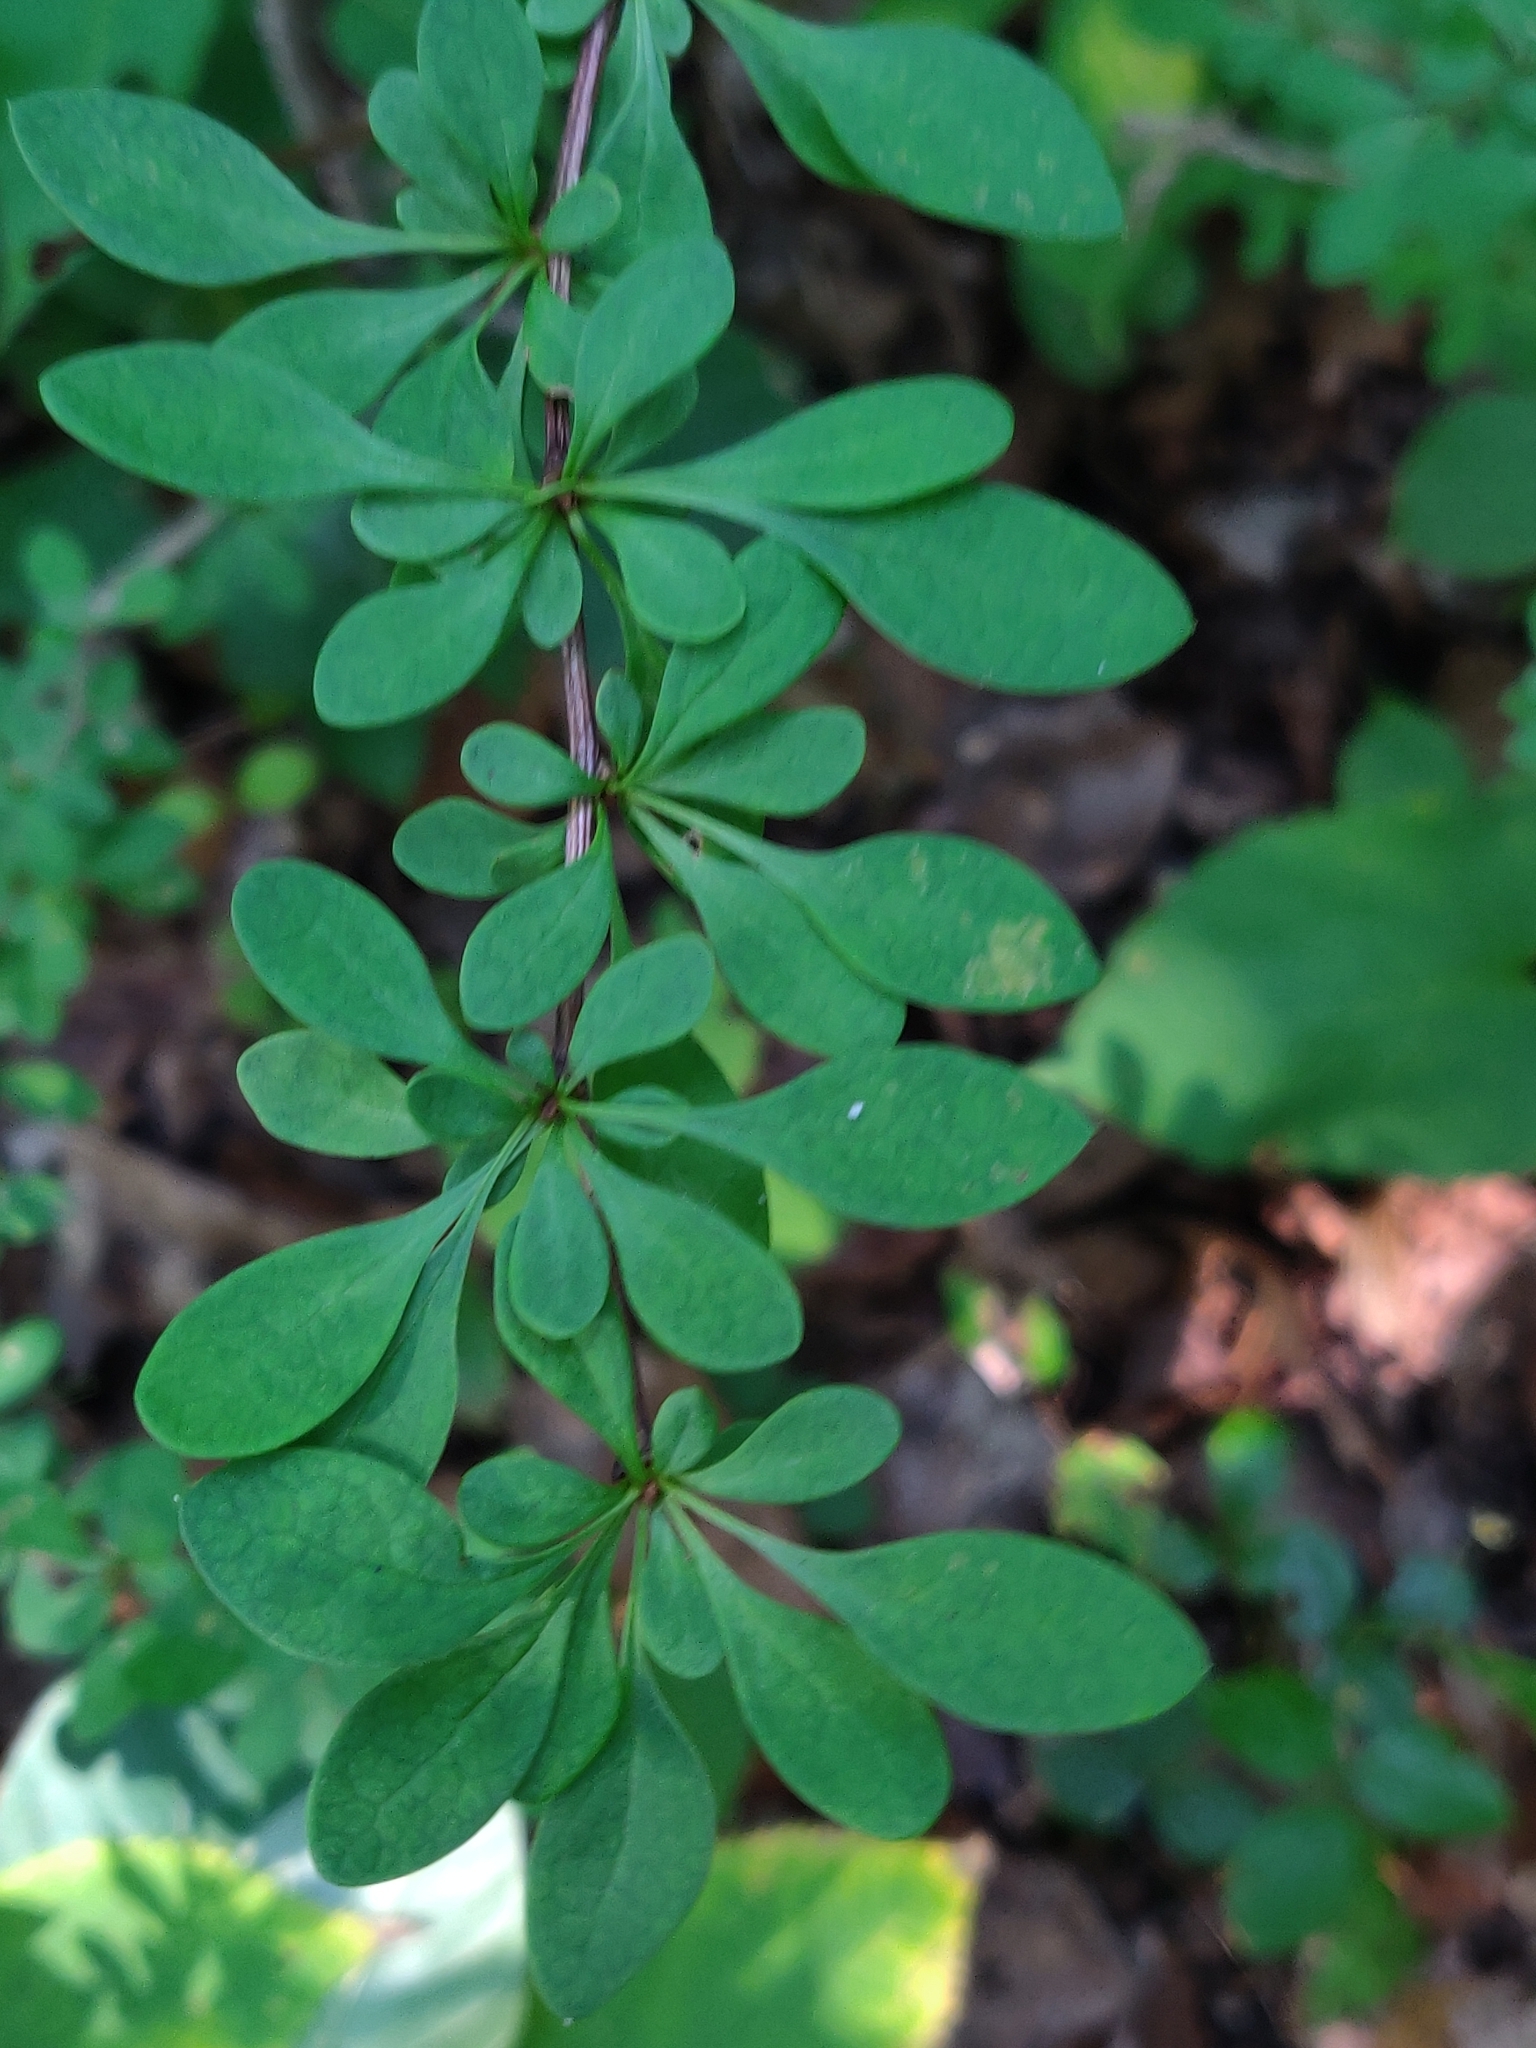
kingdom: Plantae
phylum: Tracheophyta
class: Magnoliopsida
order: Ranunculales
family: Berberidaceae
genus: Berberis
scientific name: Berberis thunbergii
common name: Japanese barberry
